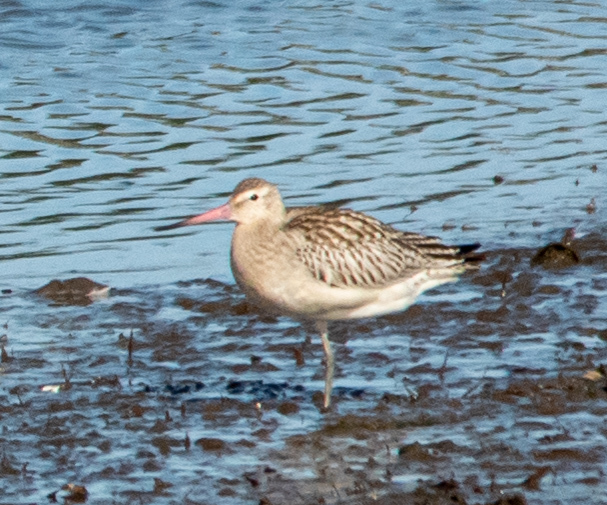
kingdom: Animalia
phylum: Chordata
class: Aves
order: Charadriiformes
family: Scolopacidae
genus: Limosa
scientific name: Limosa lapponica
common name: Bar-tailed godwit
